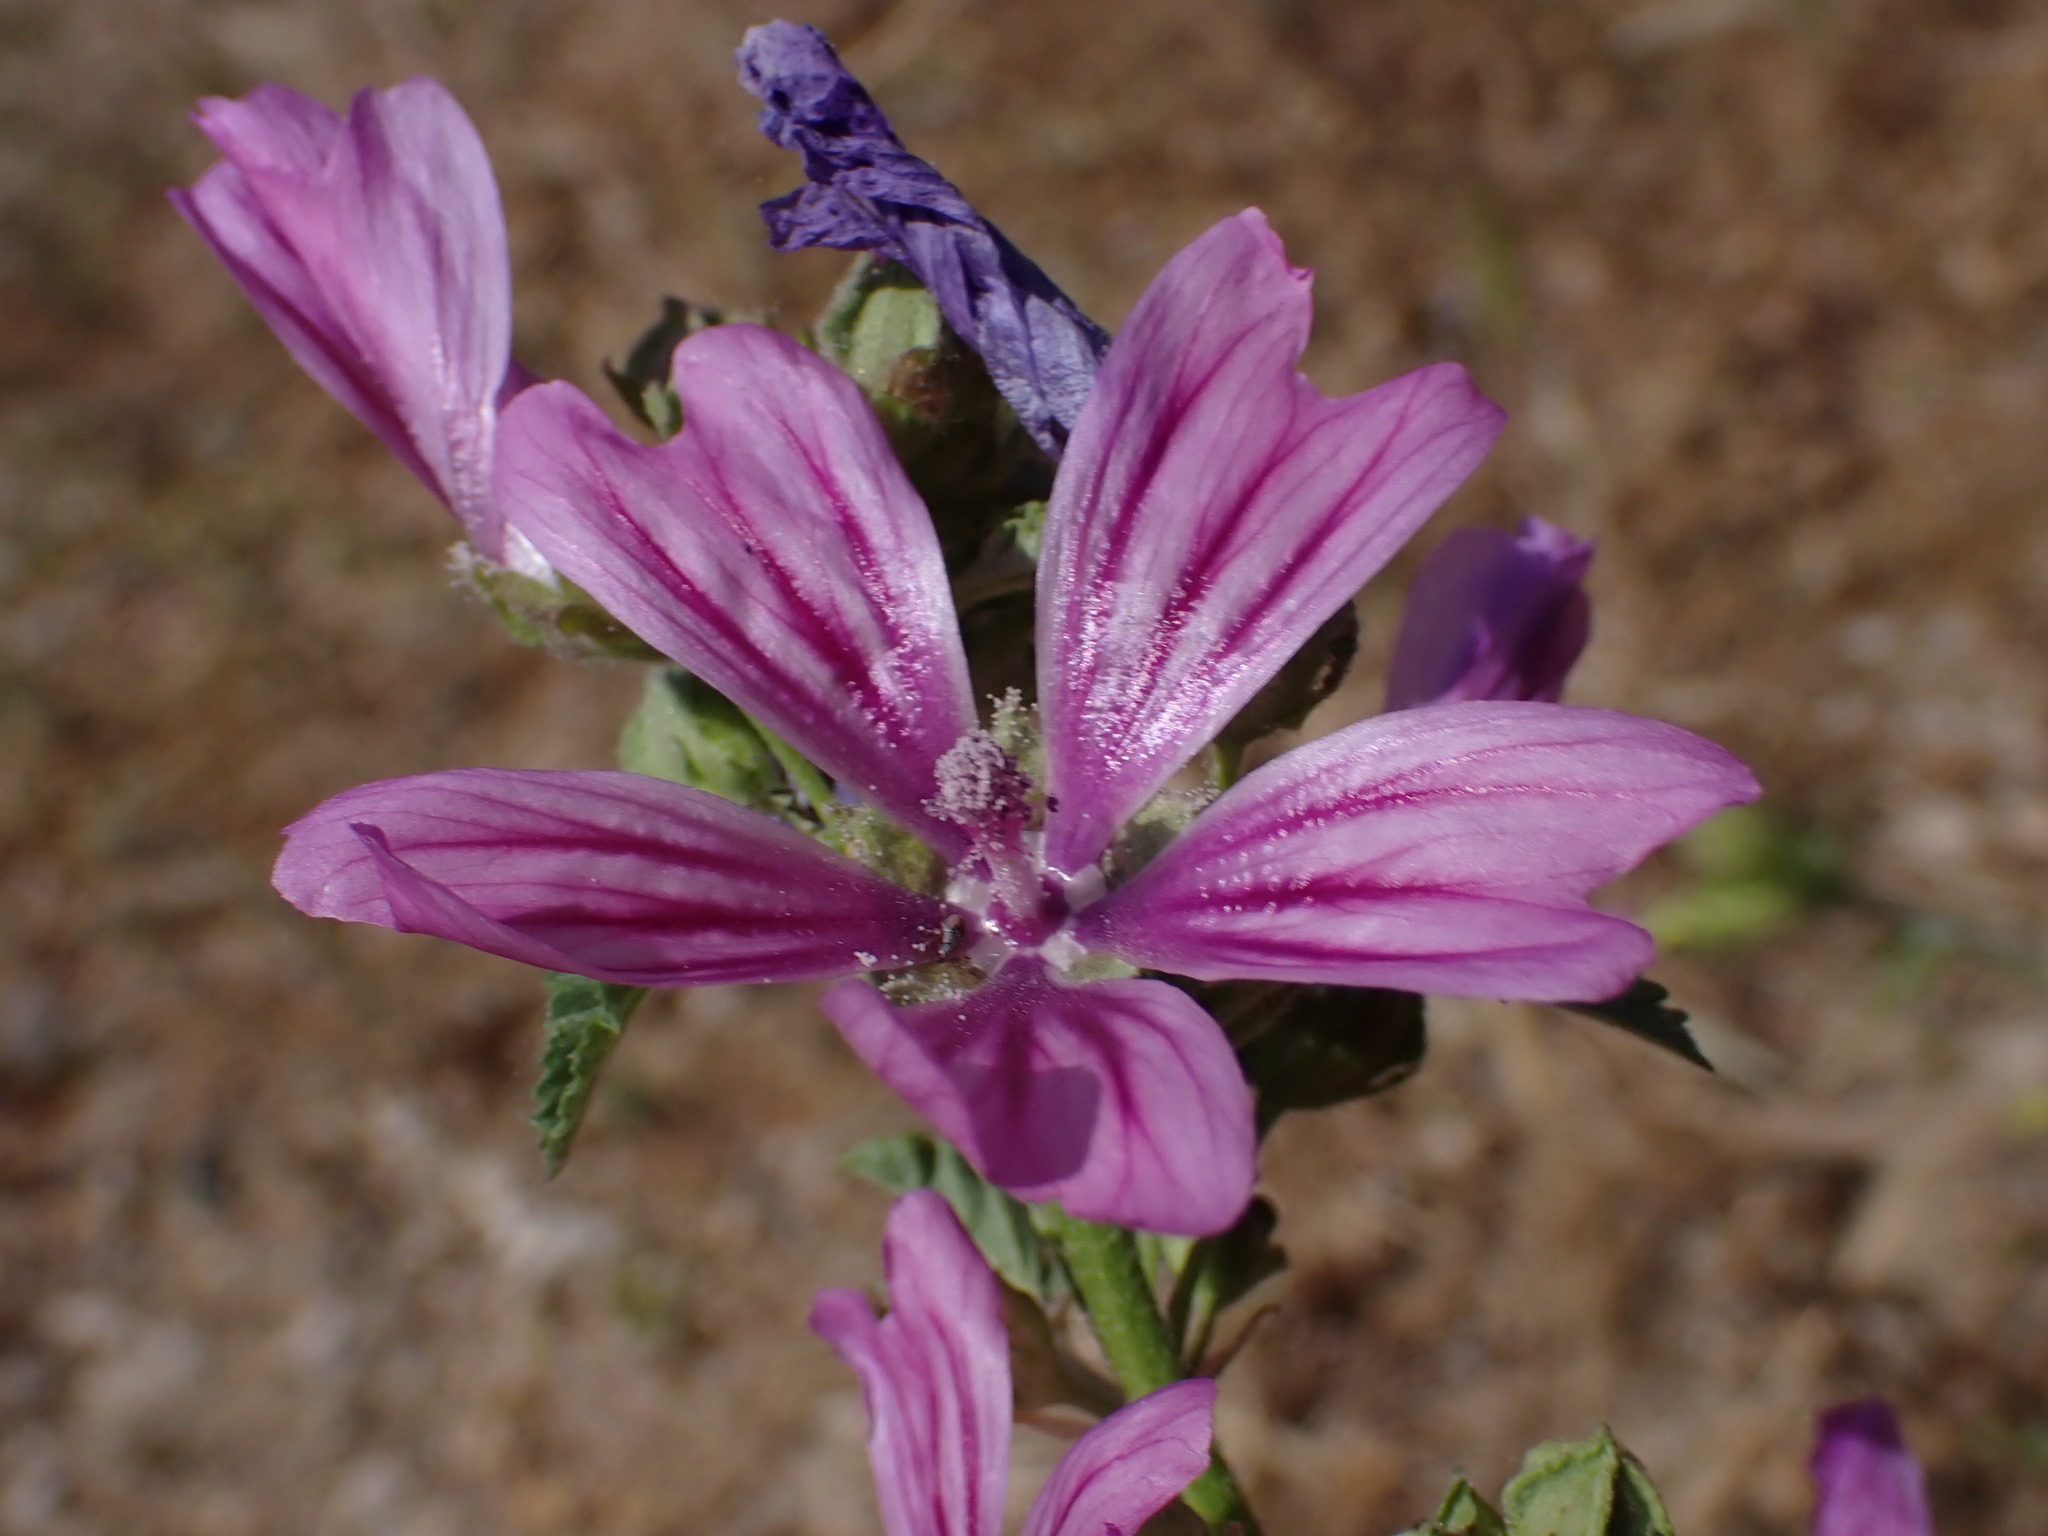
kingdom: Plantae
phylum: Tracheophyta
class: Magnoliopsida
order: Malvales
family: Malvaceae
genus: Malva
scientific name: Malva sylvestris
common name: Common mallow
